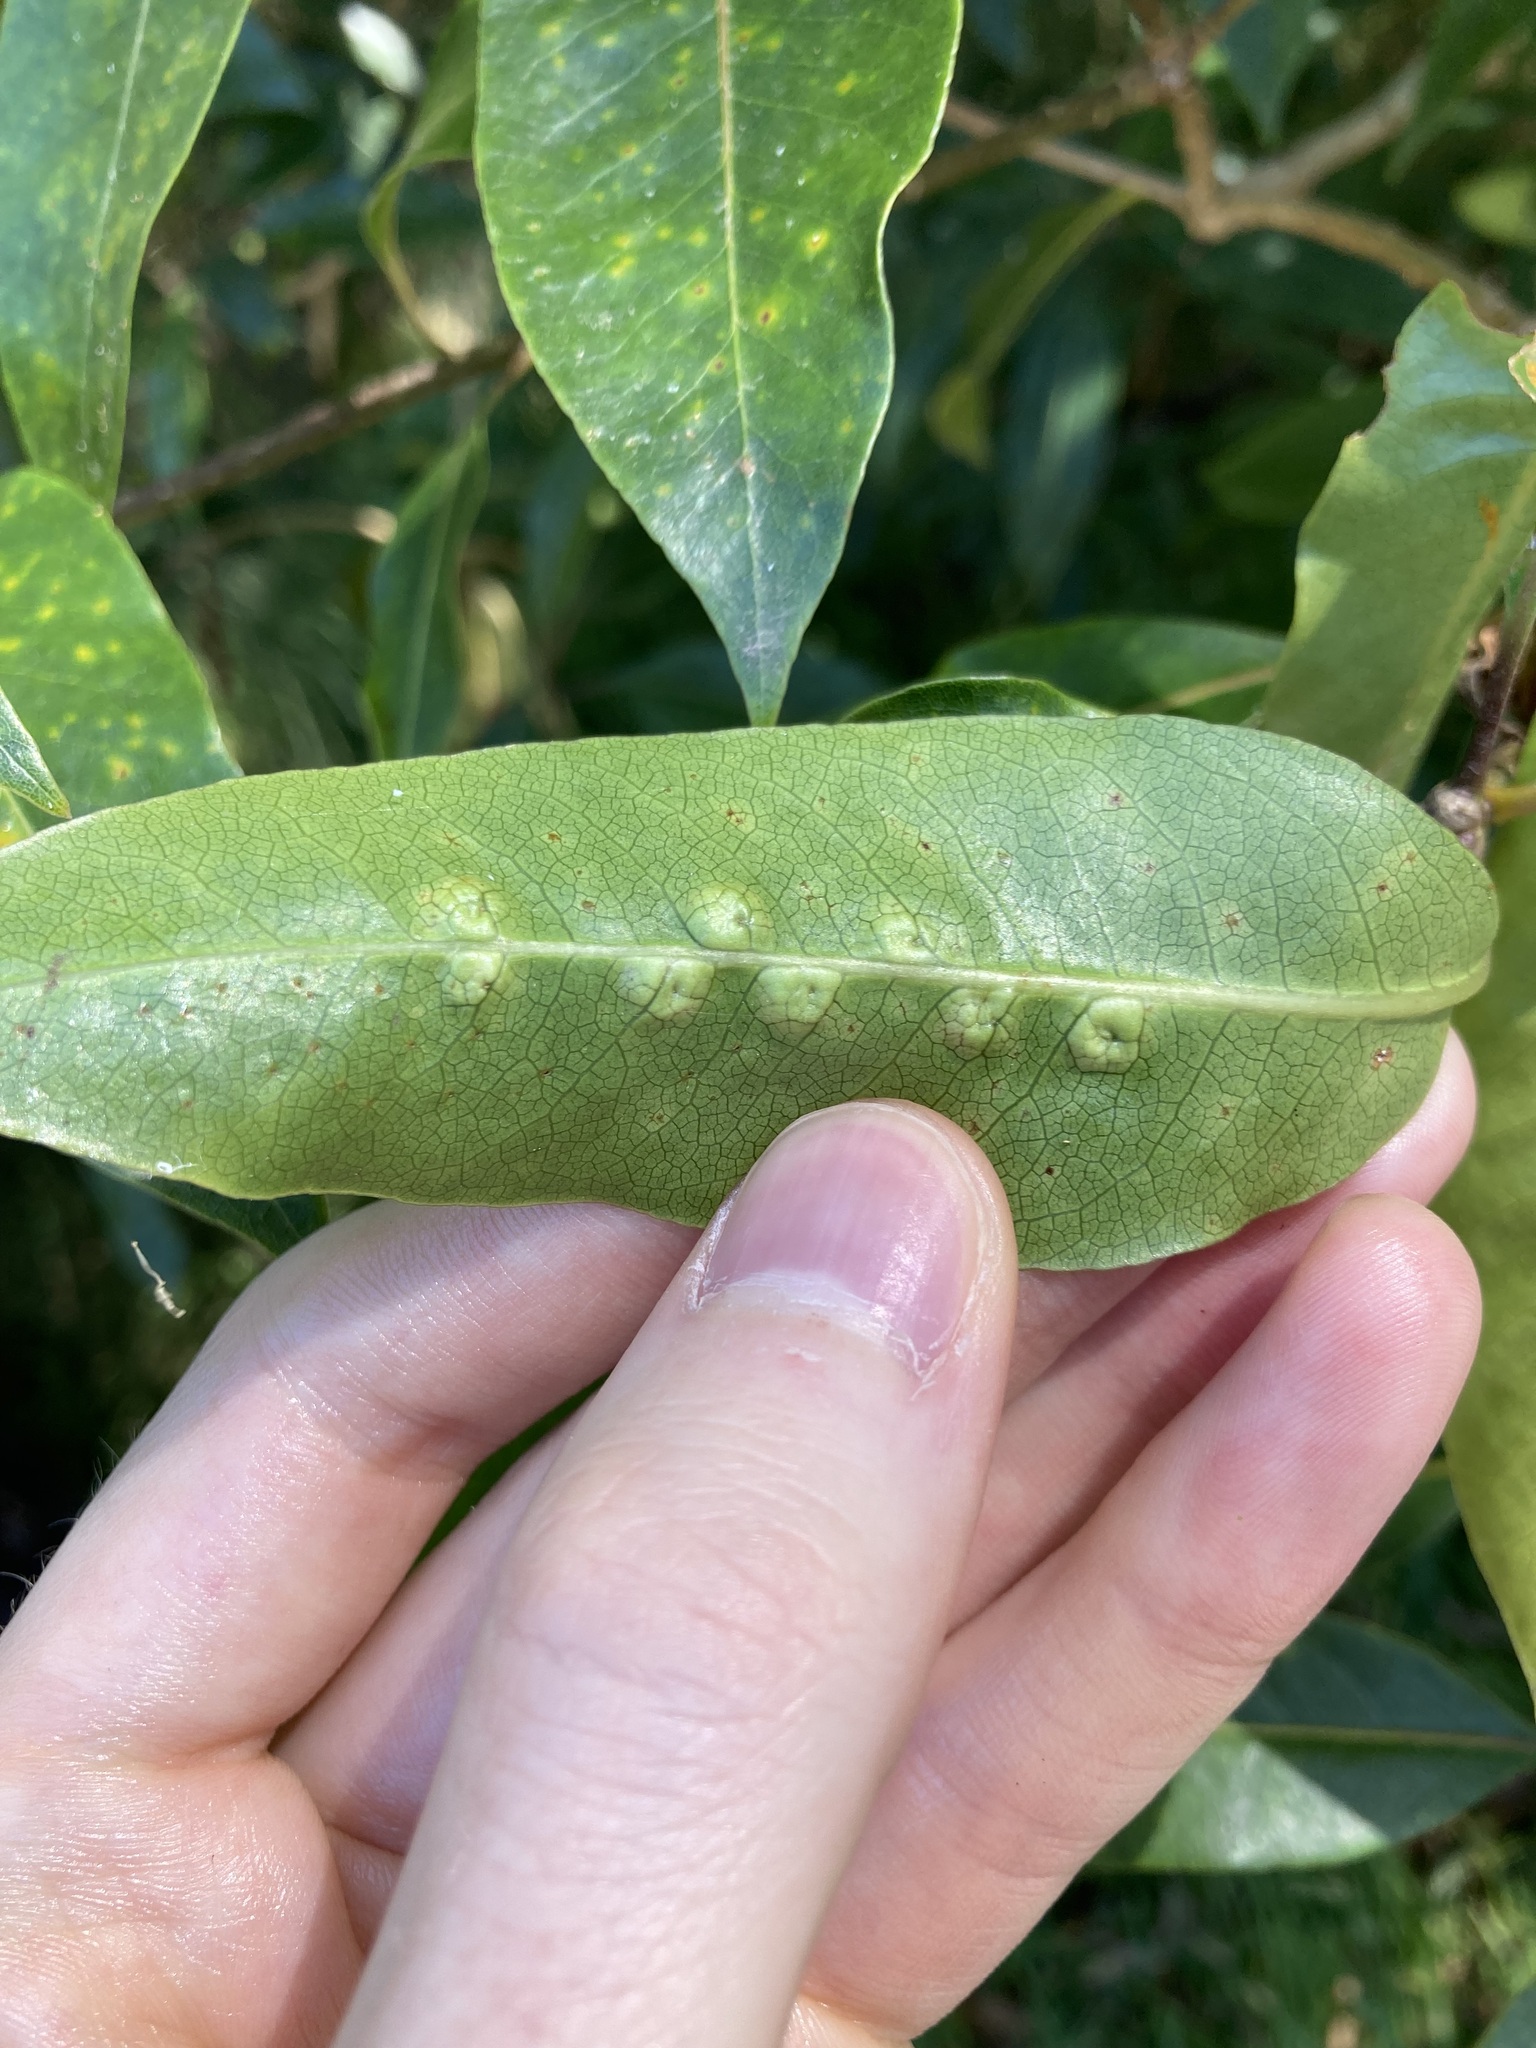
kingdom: Animalia
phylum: Arthropoda
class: Insecta
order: Diptera
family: Agromyzidae
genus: Phytoliriomyza
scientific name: Phytoliriomyza pittosporophylli
